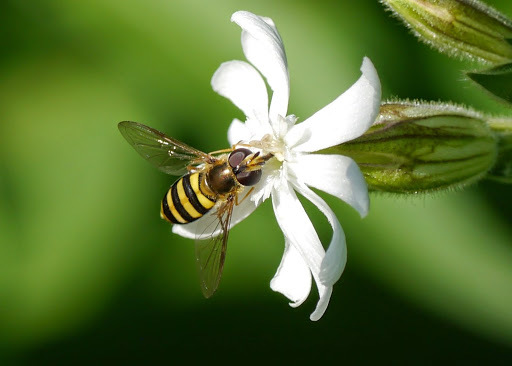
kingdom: Animalia
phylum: Arthropoda
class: Insecta
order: Diptera
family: Syrphidae
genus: Eupeodes
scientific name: Eupeodes
